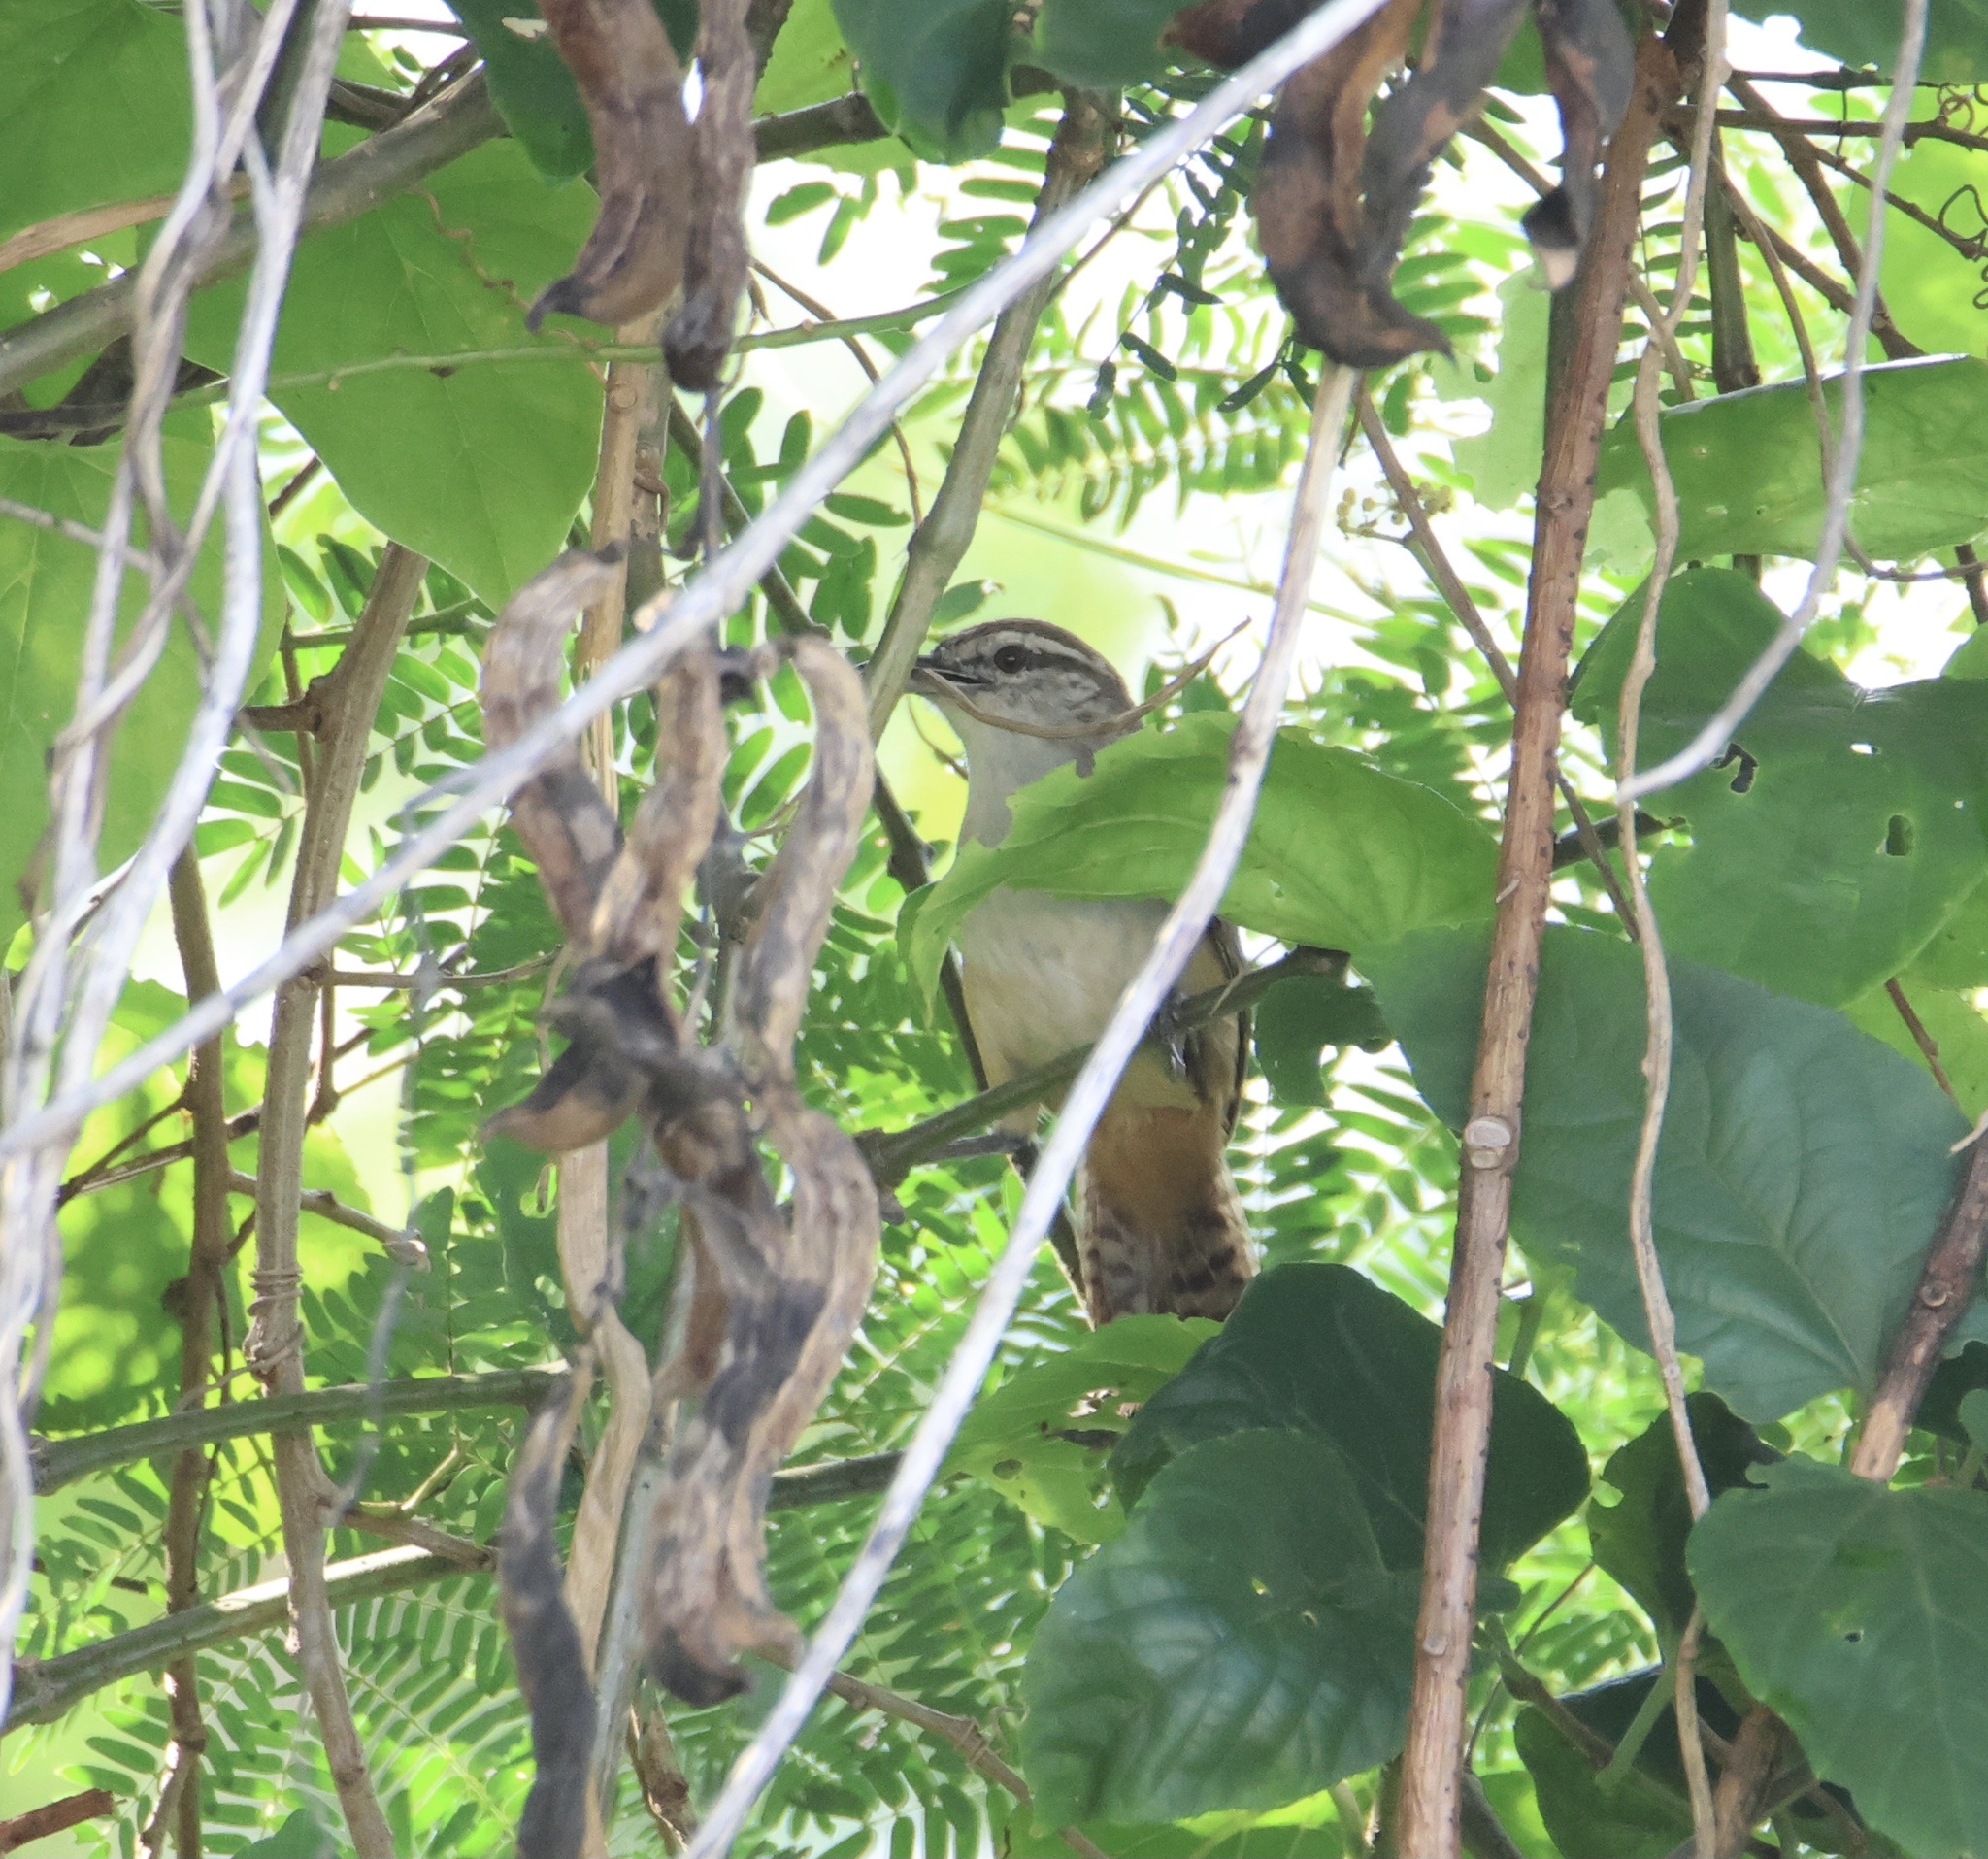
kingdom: Animalia
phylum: Chordata
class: Aves
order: Passeriformes
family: Troglodytidae
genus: Cantorchilus
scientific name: Cantorchilus modestus
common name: Cabanis's wren
